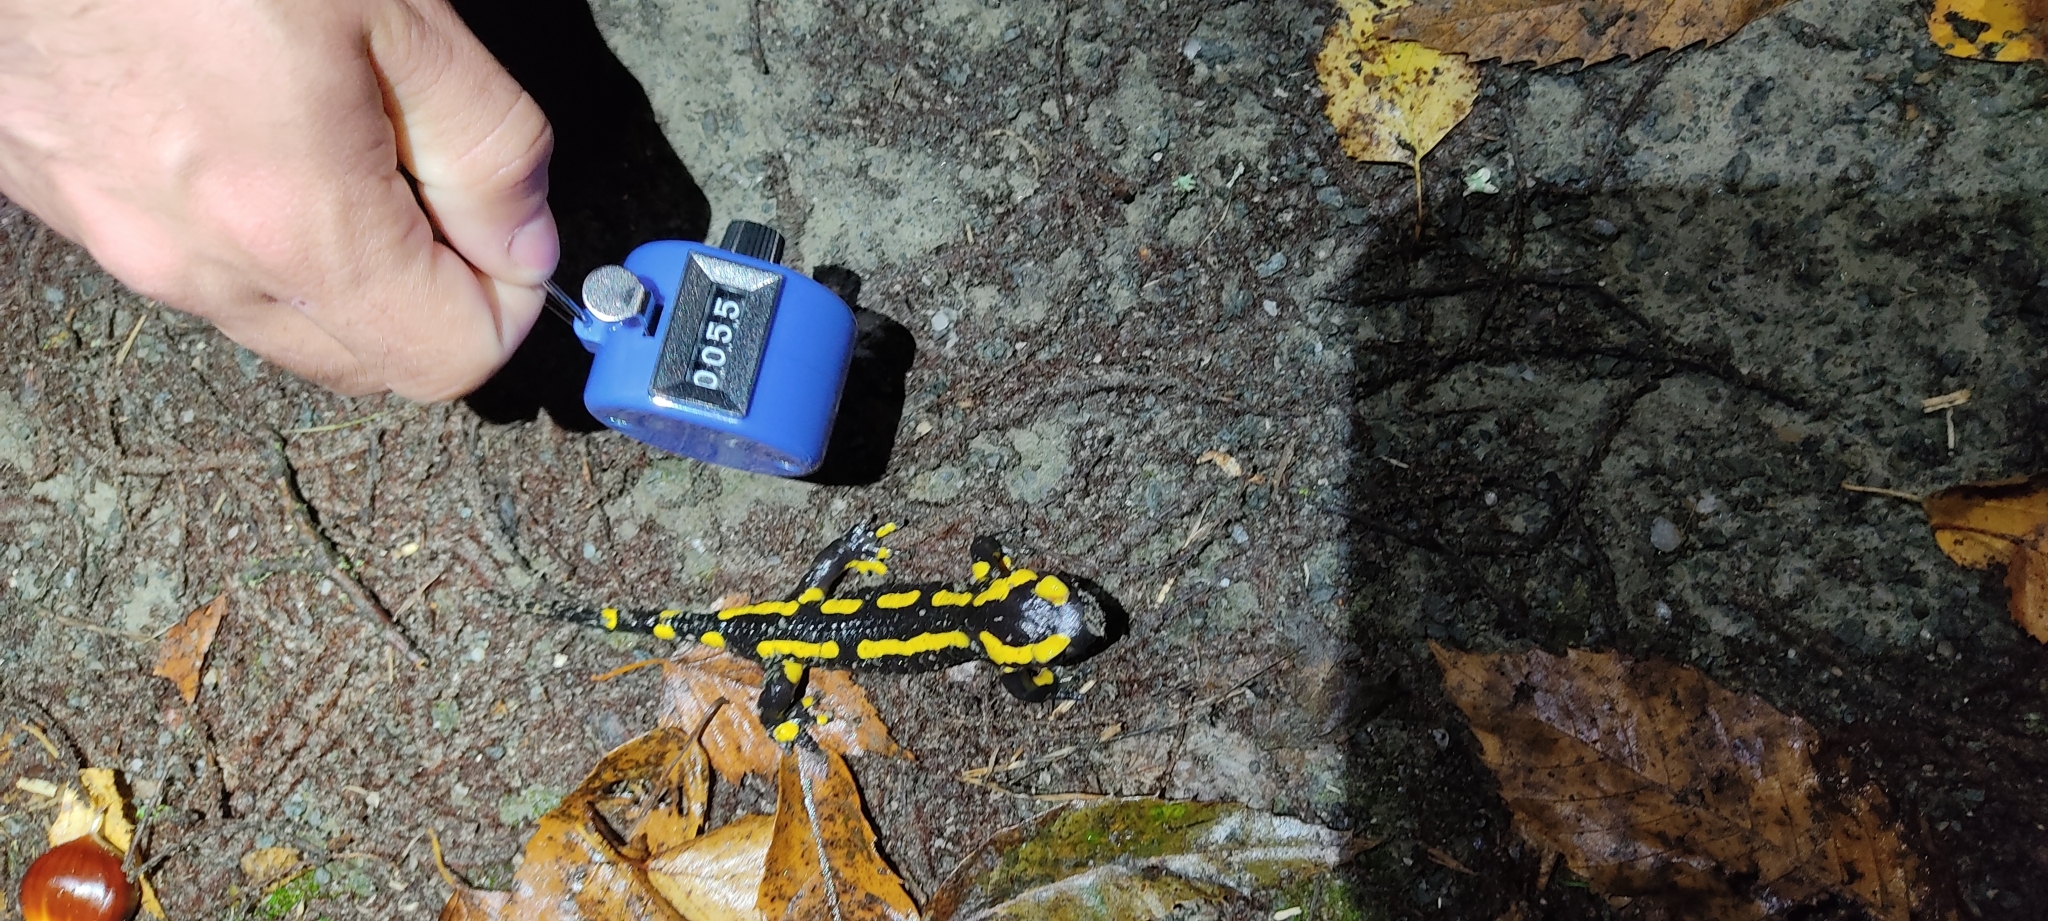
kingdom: Animalia
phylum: Chordata
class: Amphibia
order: Caudata
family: Salamandridae
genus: Salamandra
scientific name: Salamandra salamandra
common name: Fire salamander
